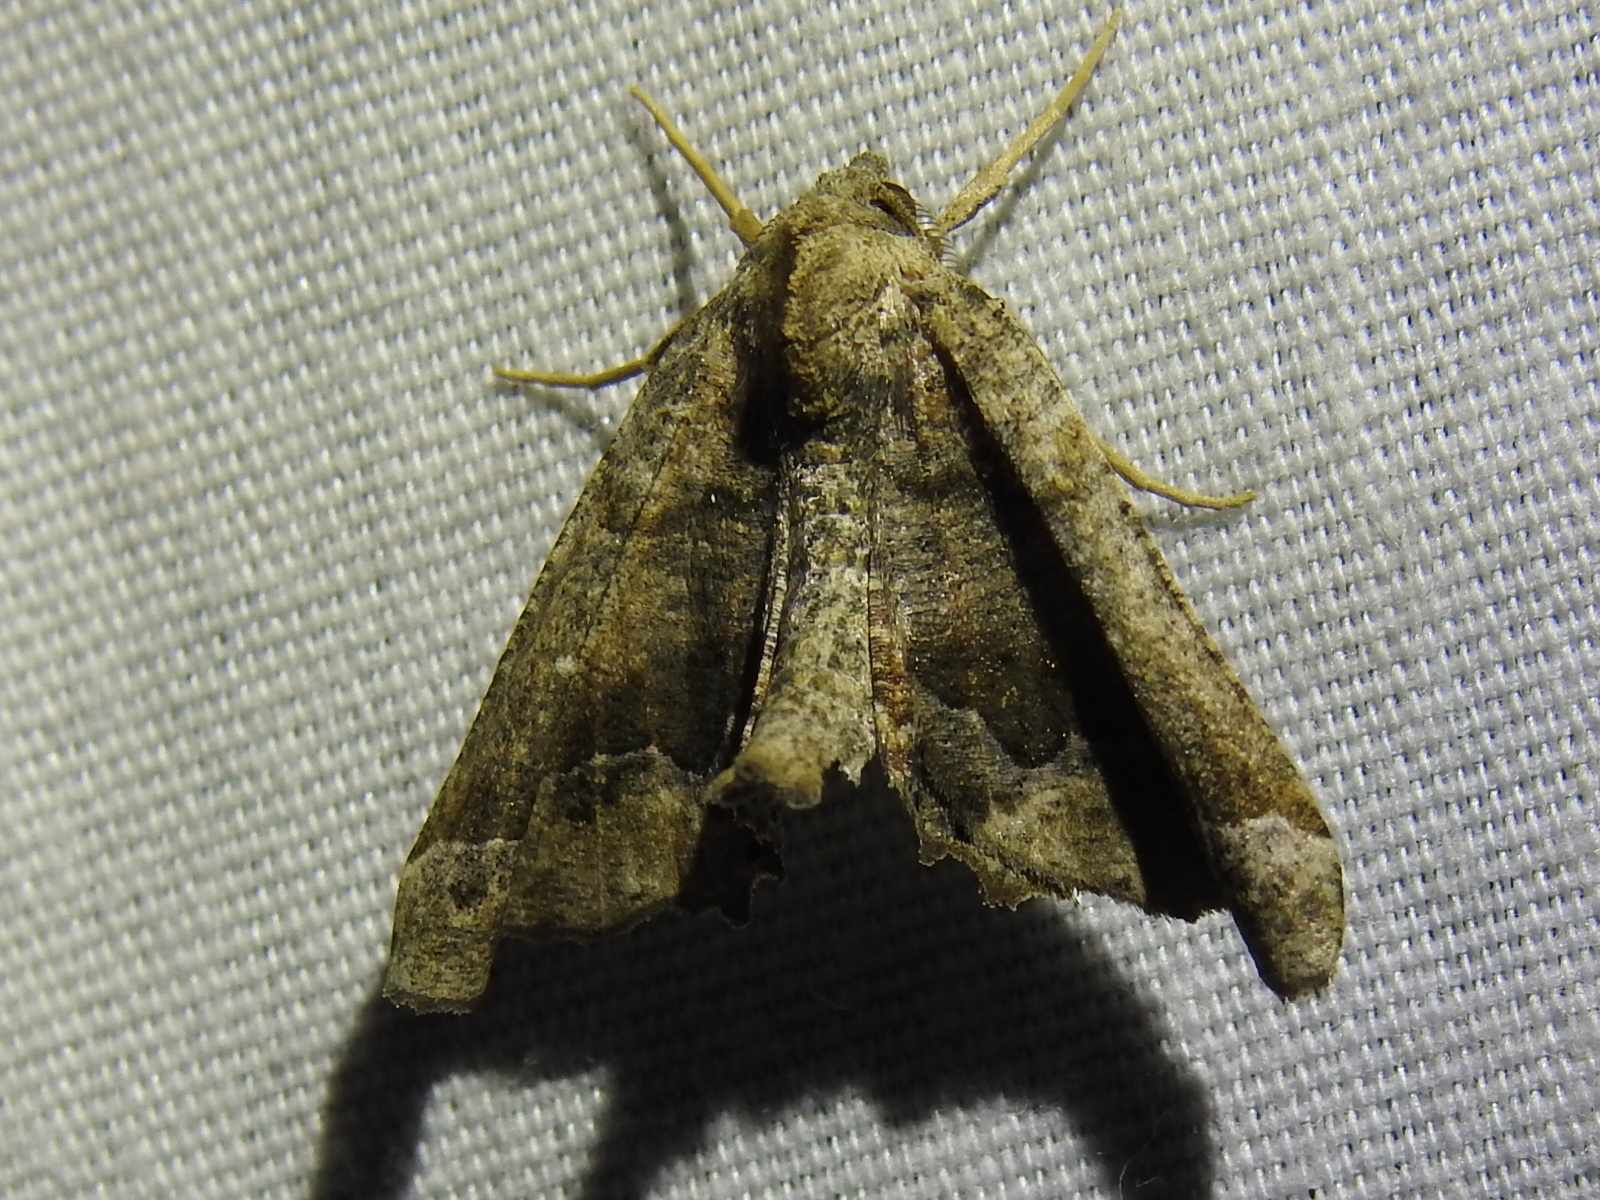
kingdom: Animalia
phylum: Arthropoda
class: Insecta
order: Lepidoptera
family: Geometridae
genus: Pero
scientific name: Pero meskaria
